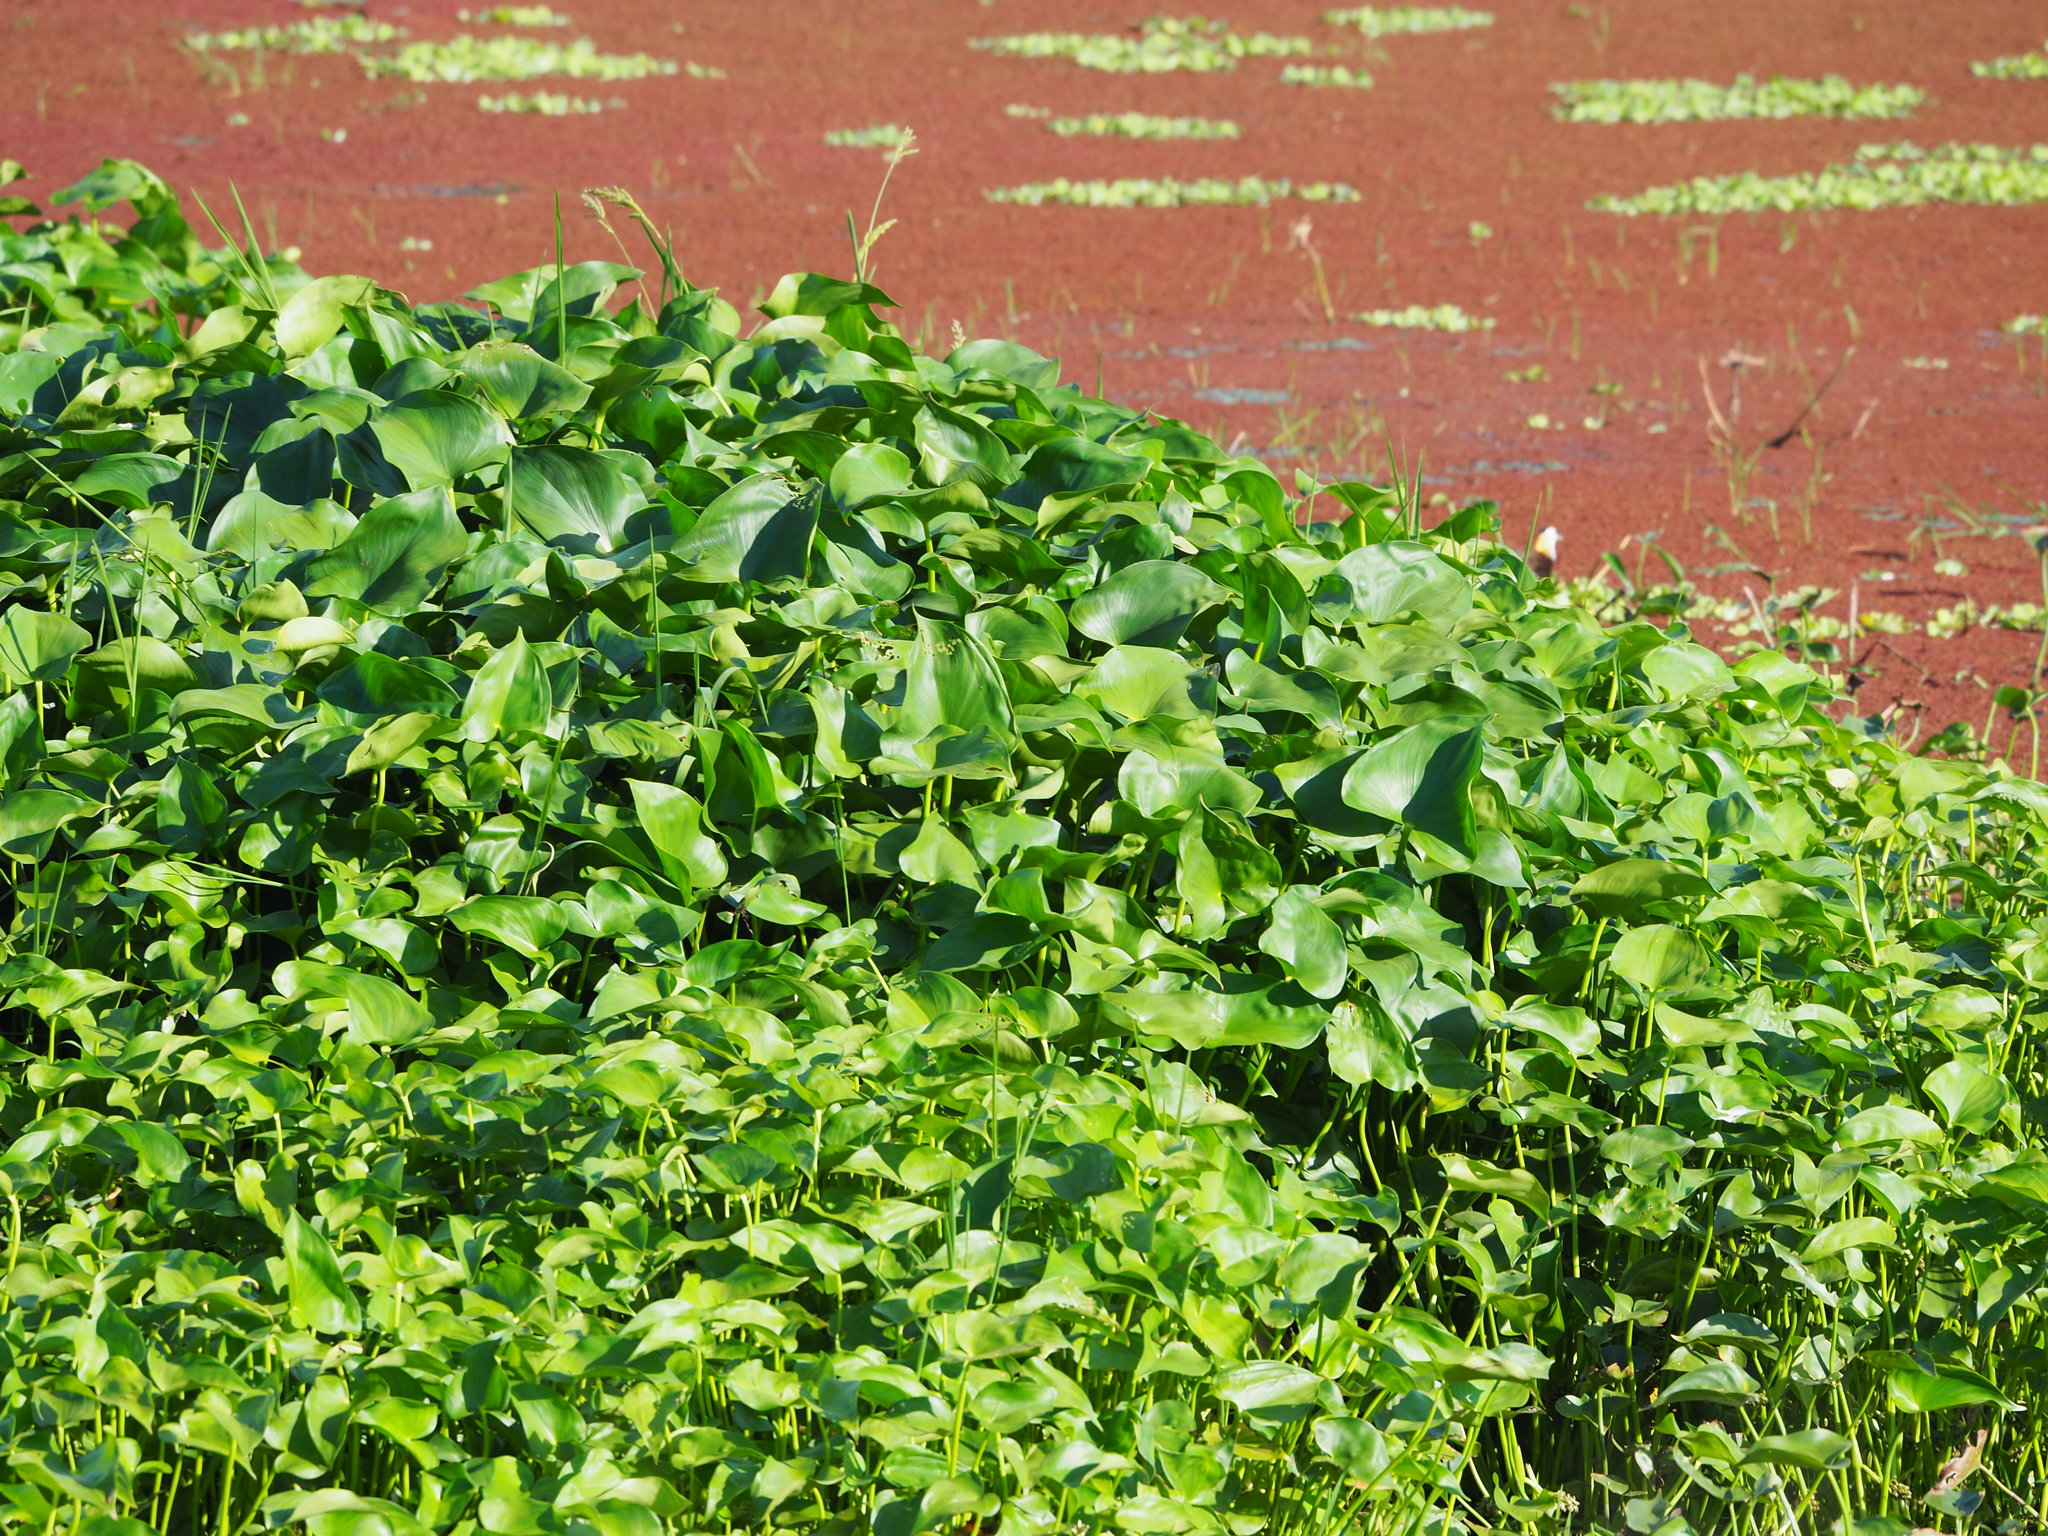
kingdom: Plantae
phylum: Tracheophyta
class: Liliopsida
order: Commelinales
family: Pontederiaceae
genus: Pontederia
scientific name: Pontederia vaginalis
